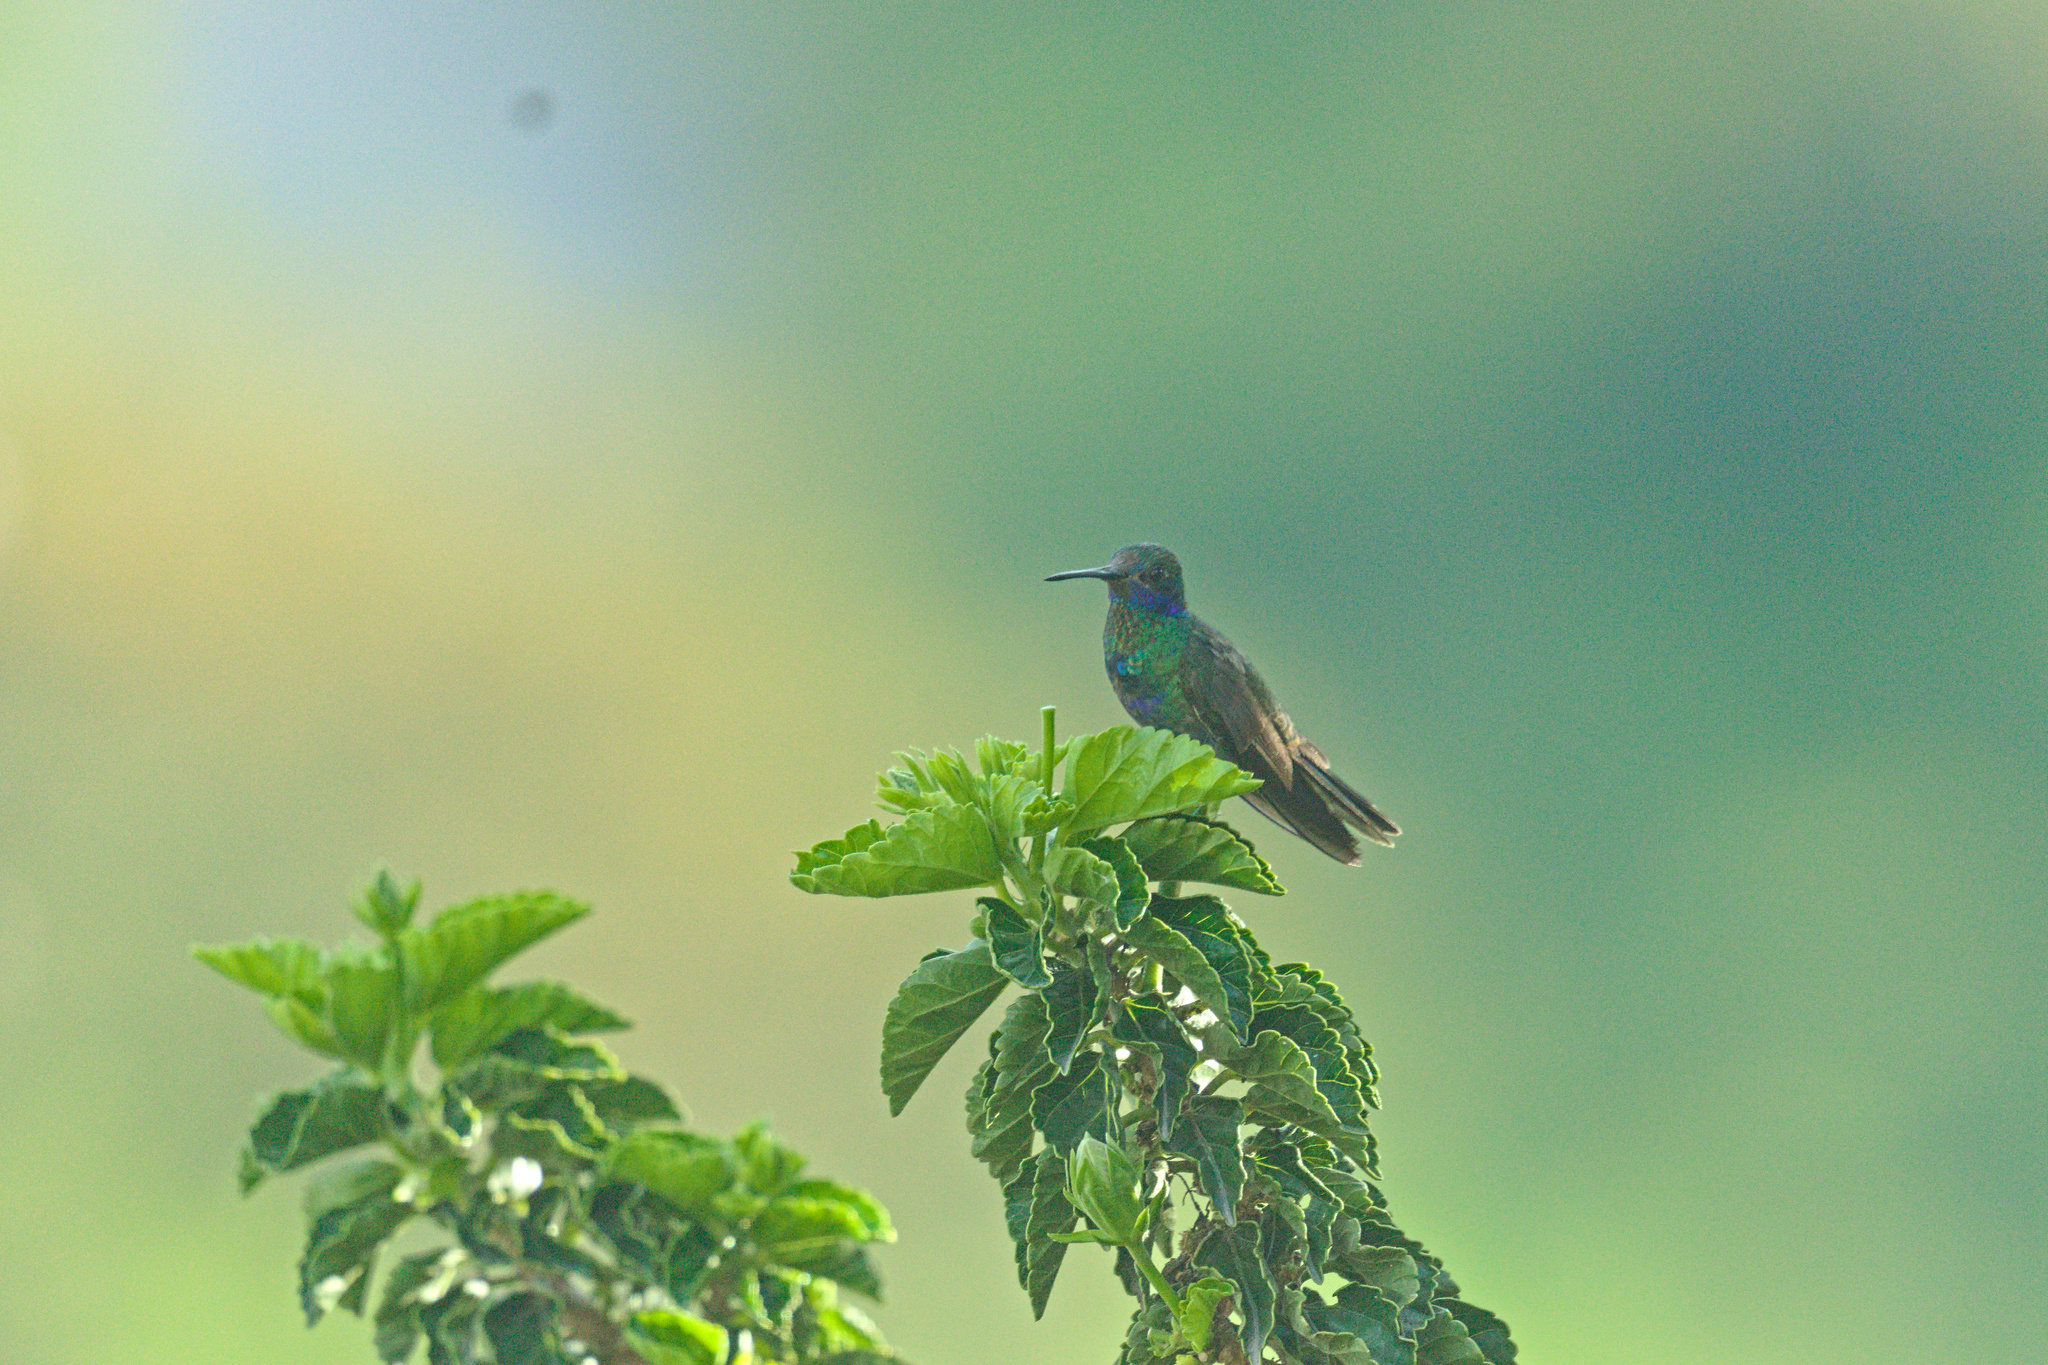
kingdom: Animalia
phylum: Chordata
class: Aves
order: Apodiformes
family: Trochilidae
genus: Colibri
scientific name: Colibri coruscans
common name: Sparkling violetear
